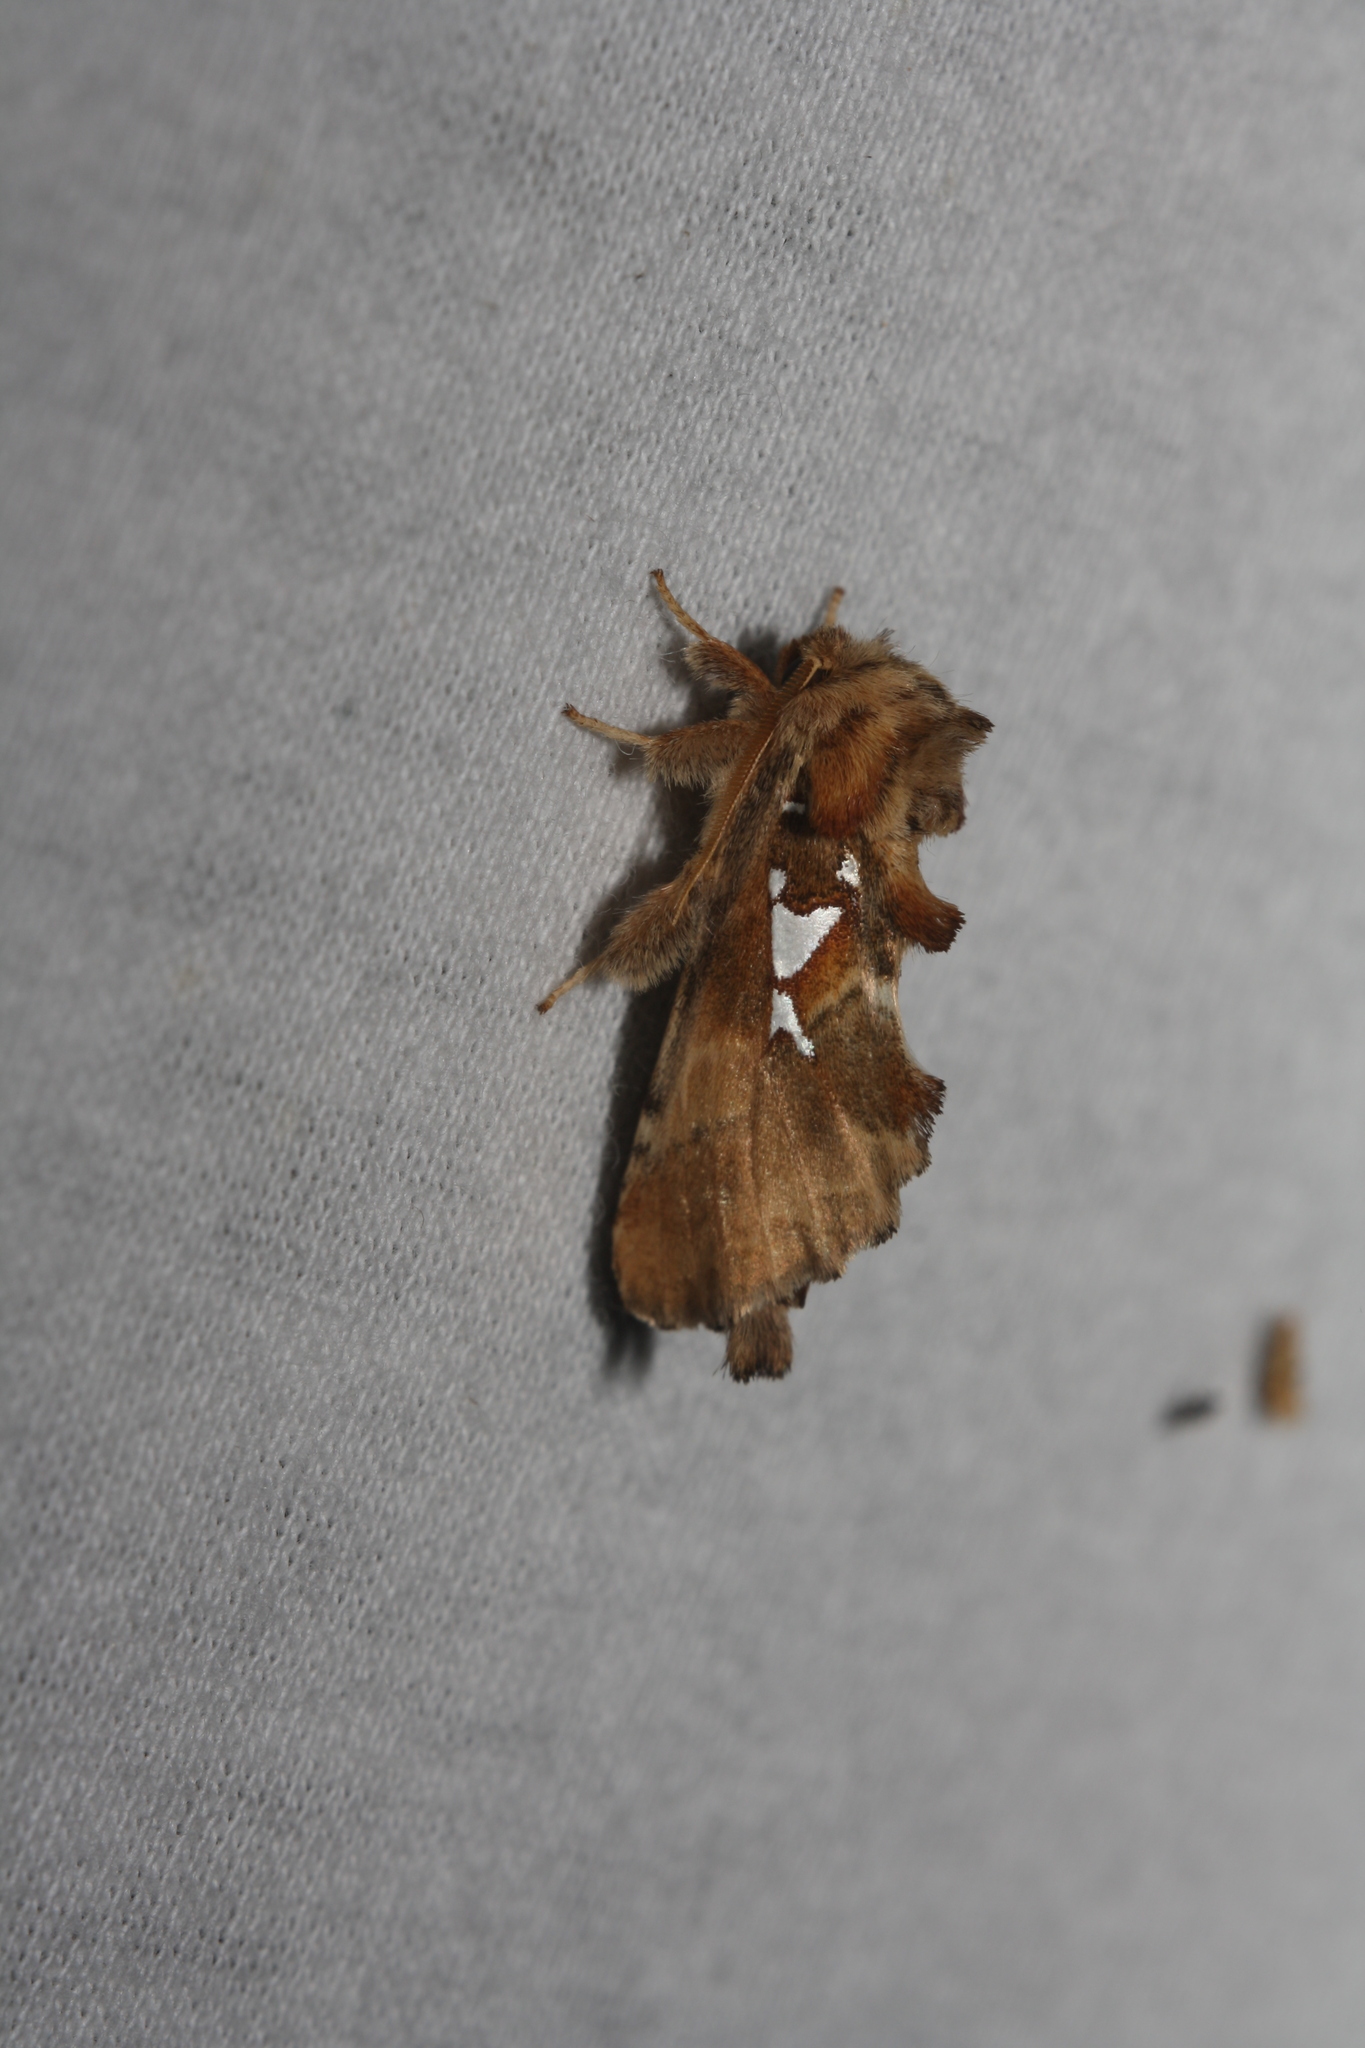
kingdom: Animalia
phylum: Arthropoda
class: Insecta
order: Lepidoptera
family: Notodontidae
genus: Spatalia
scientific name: Spatalia argentina
